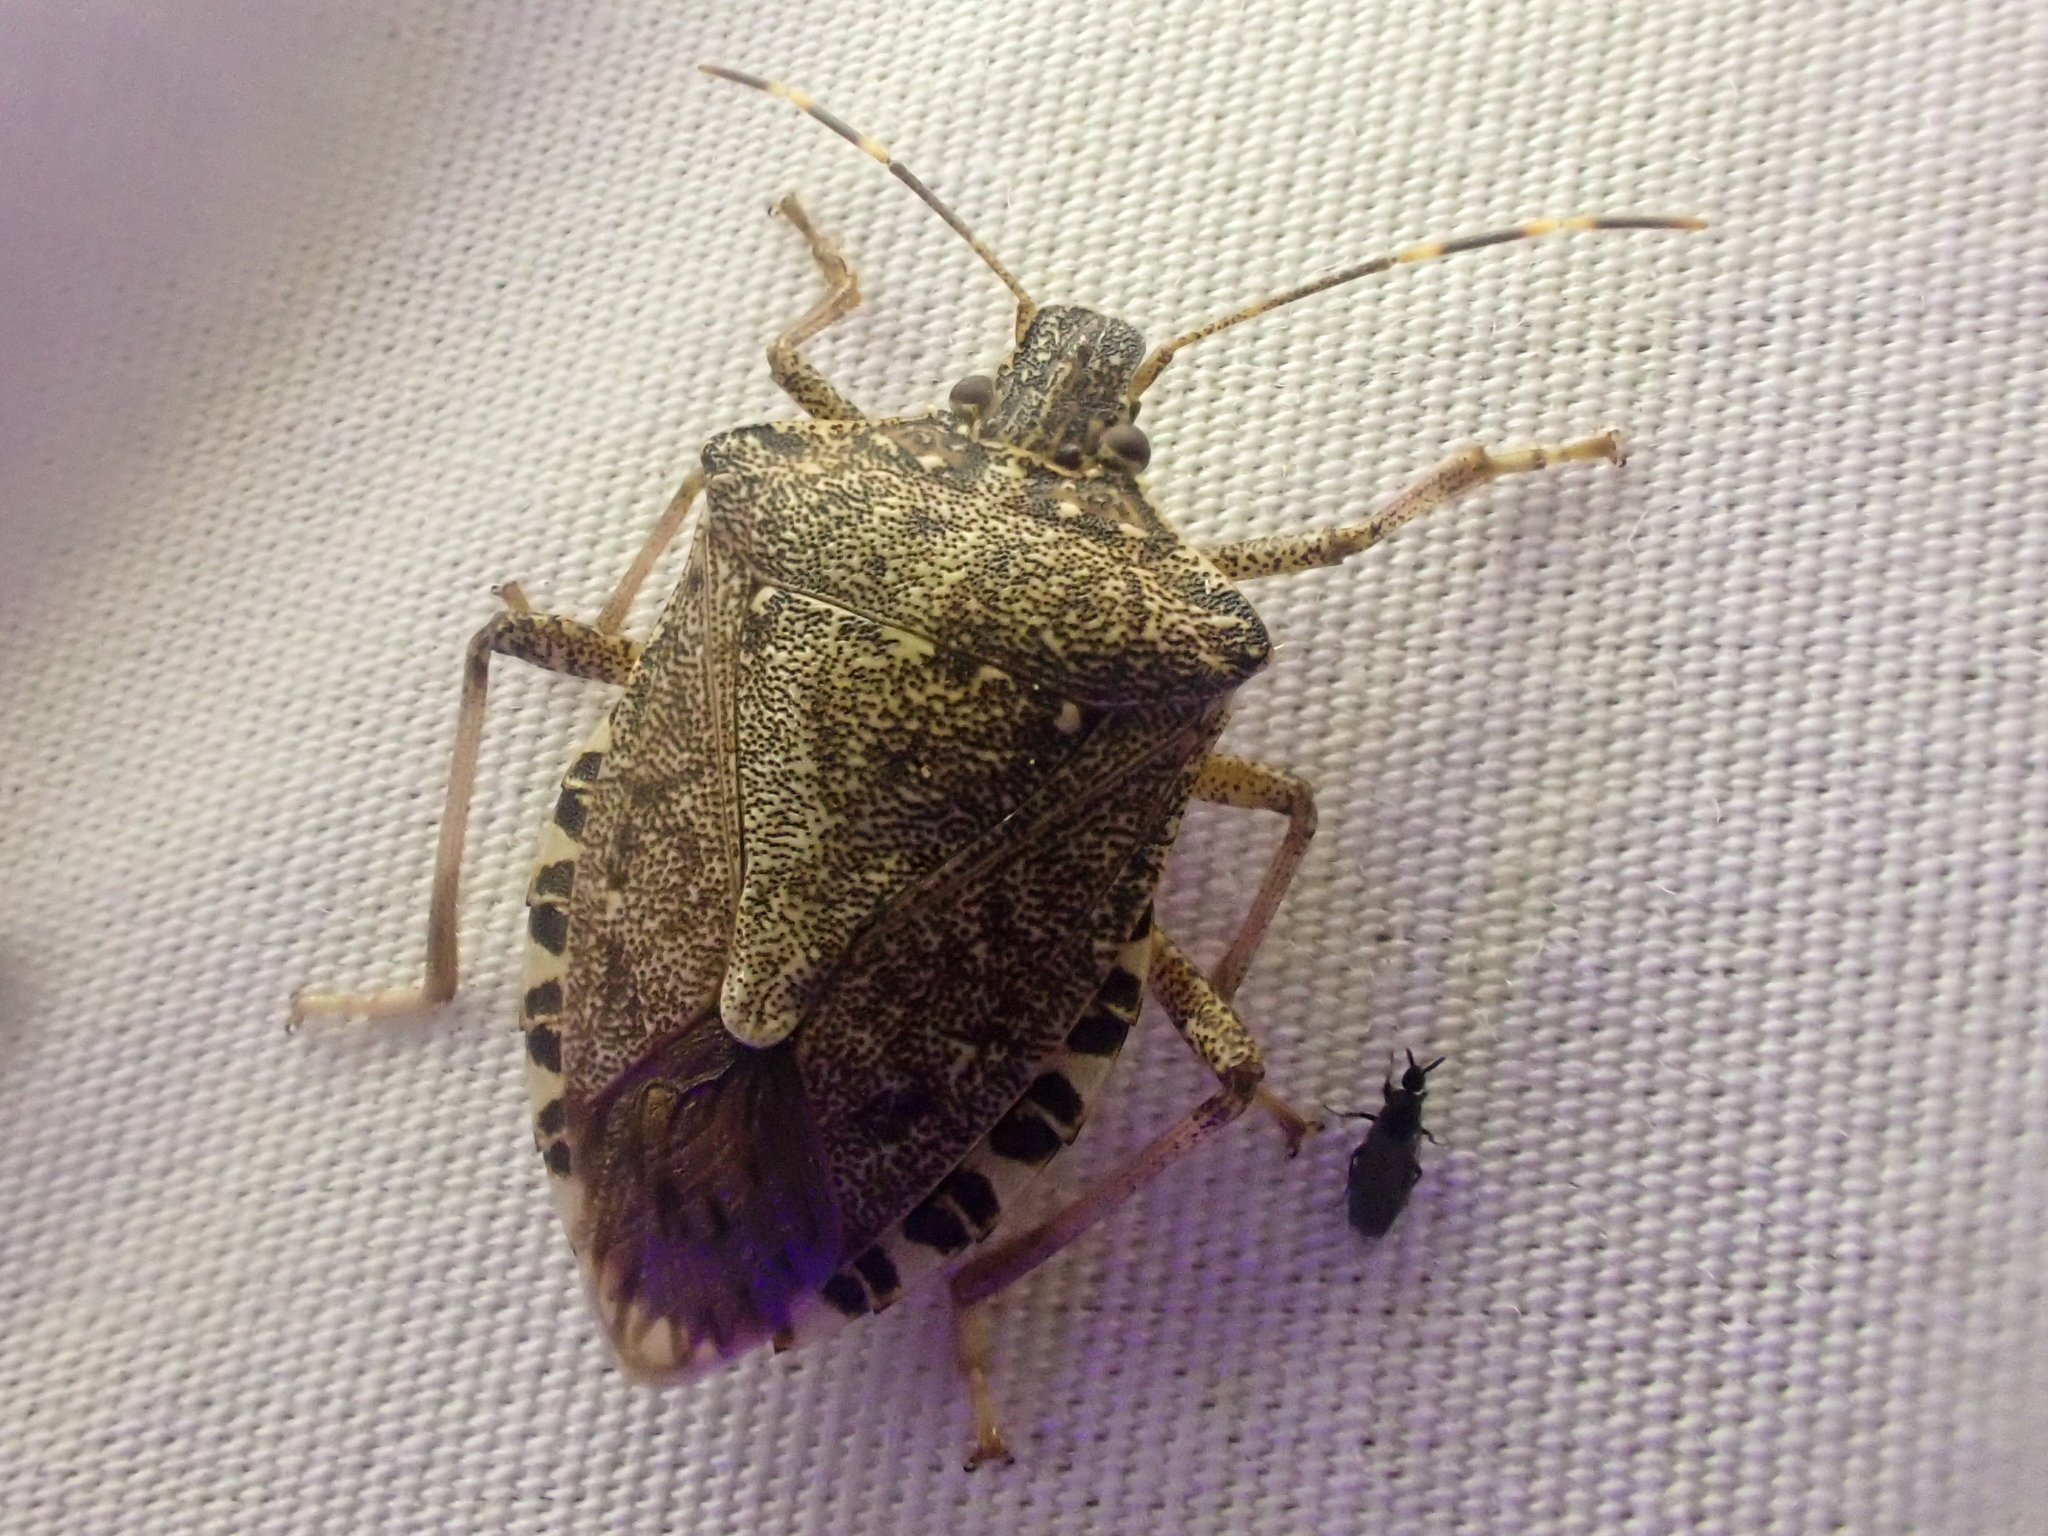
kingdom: Animalia
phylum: Arthropoda
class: Insecta
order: Hemiptera
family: Pentatomidae
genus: Halyomorpha
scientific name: Halyomorpha halys
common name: Brown marmorated stink bug
